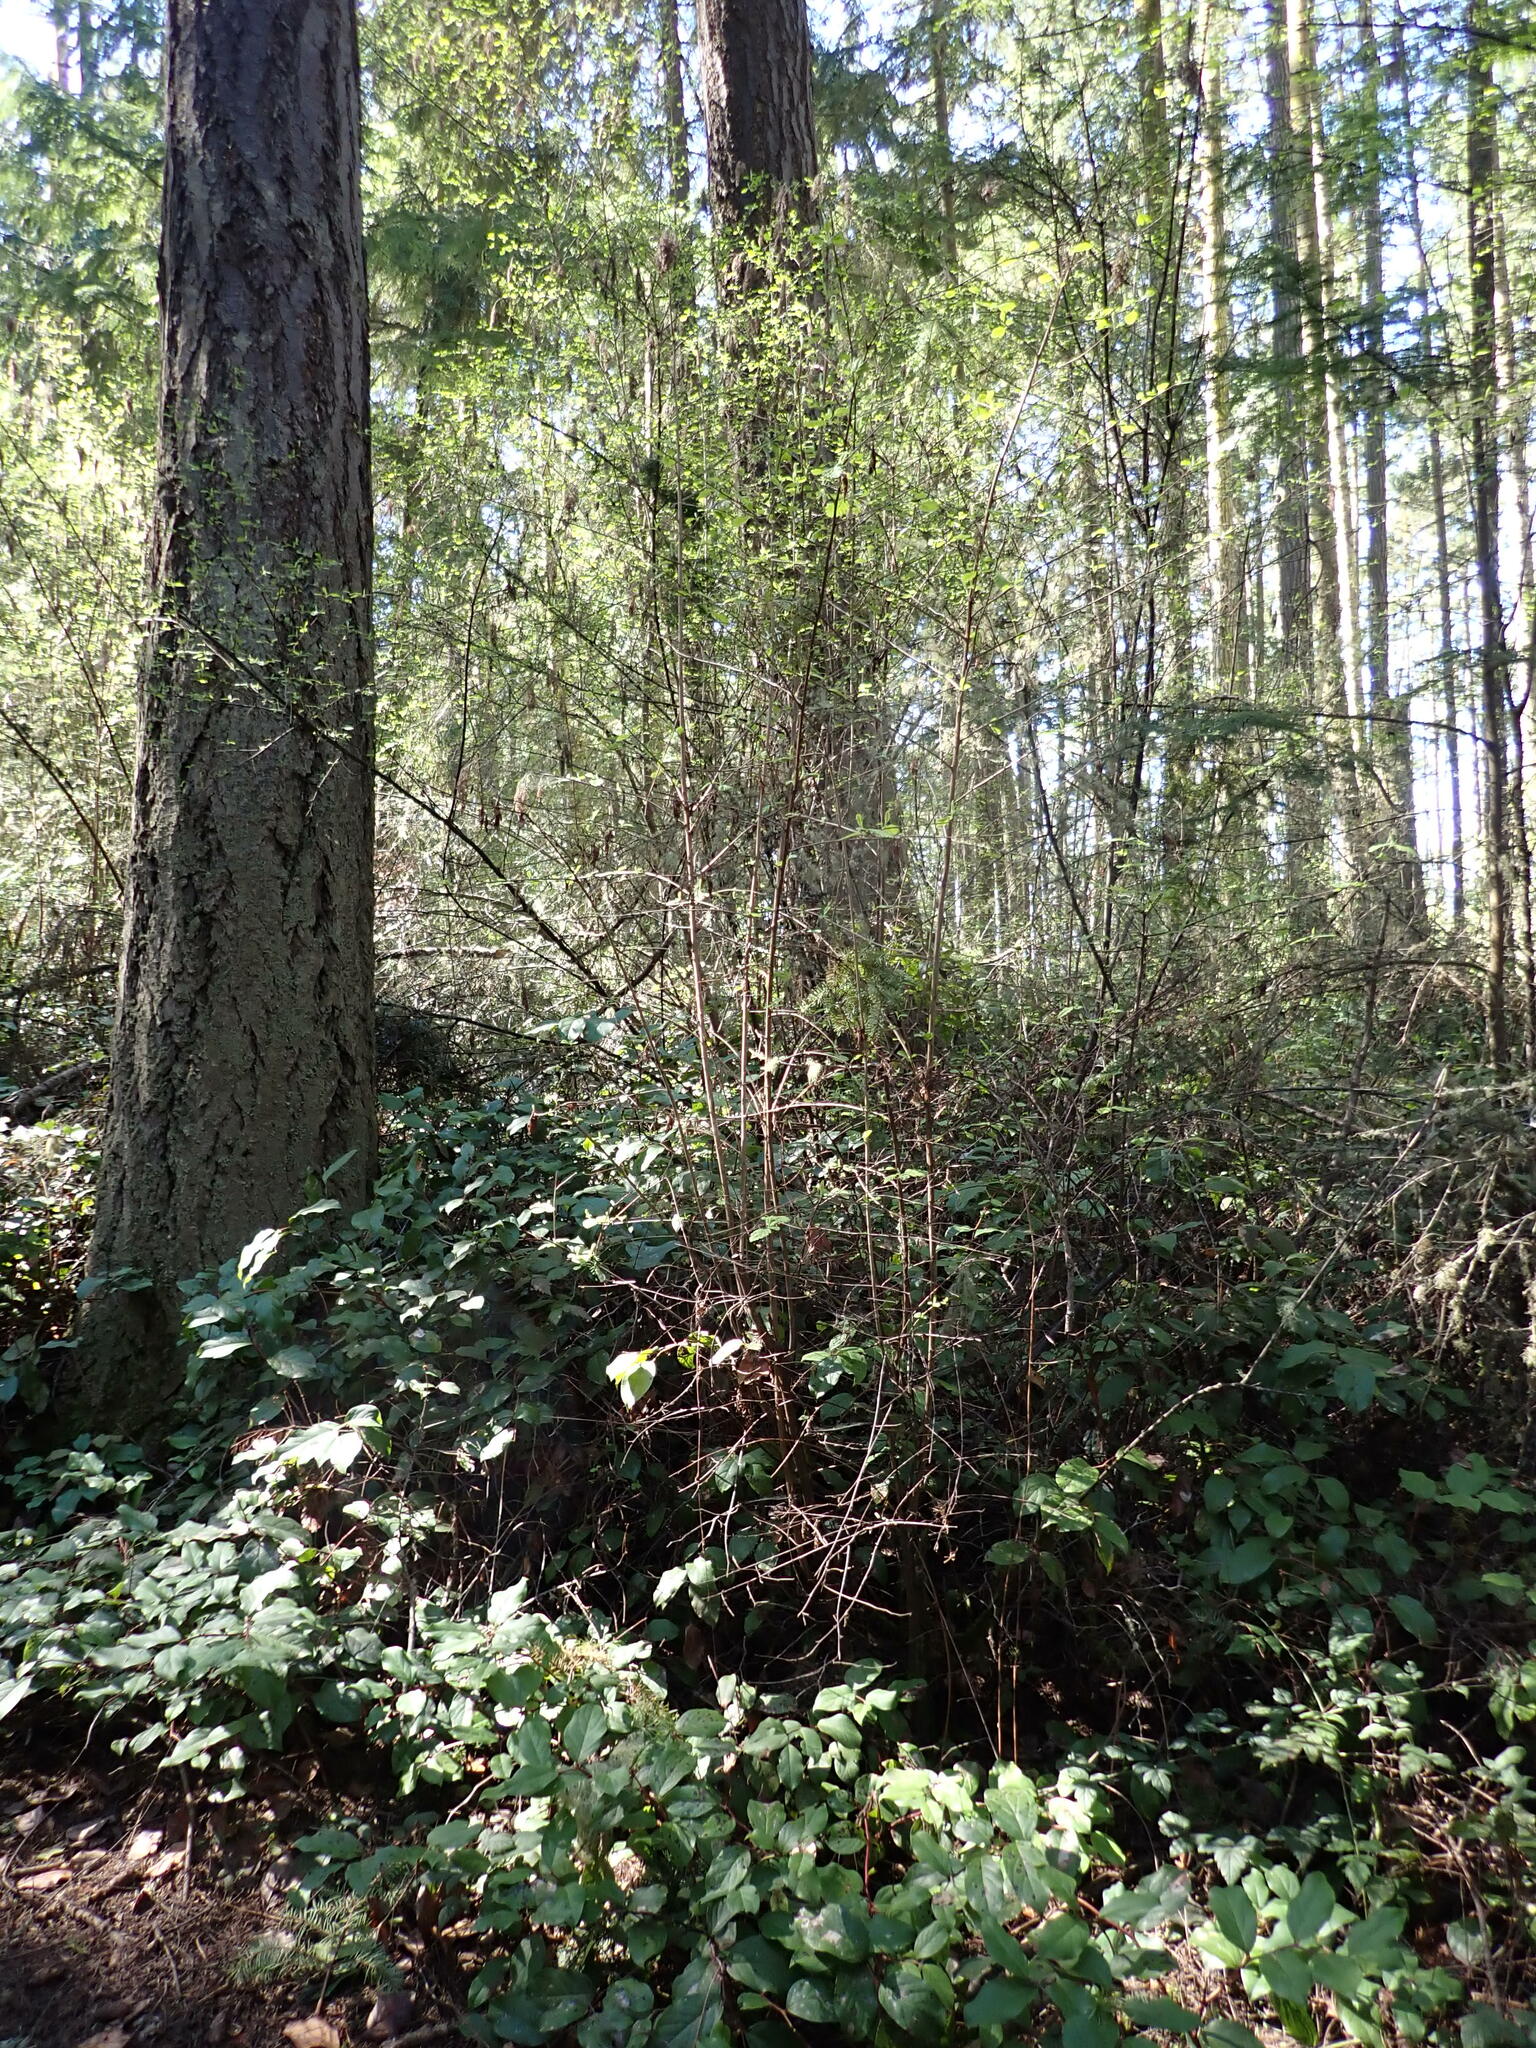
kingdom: Plantae
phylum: Tracheophyta
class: Magnoliopsida
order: Rosales
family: Rosaceae
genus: Holodiscus
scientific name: Holodiscus discolor
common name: Oceanspray
